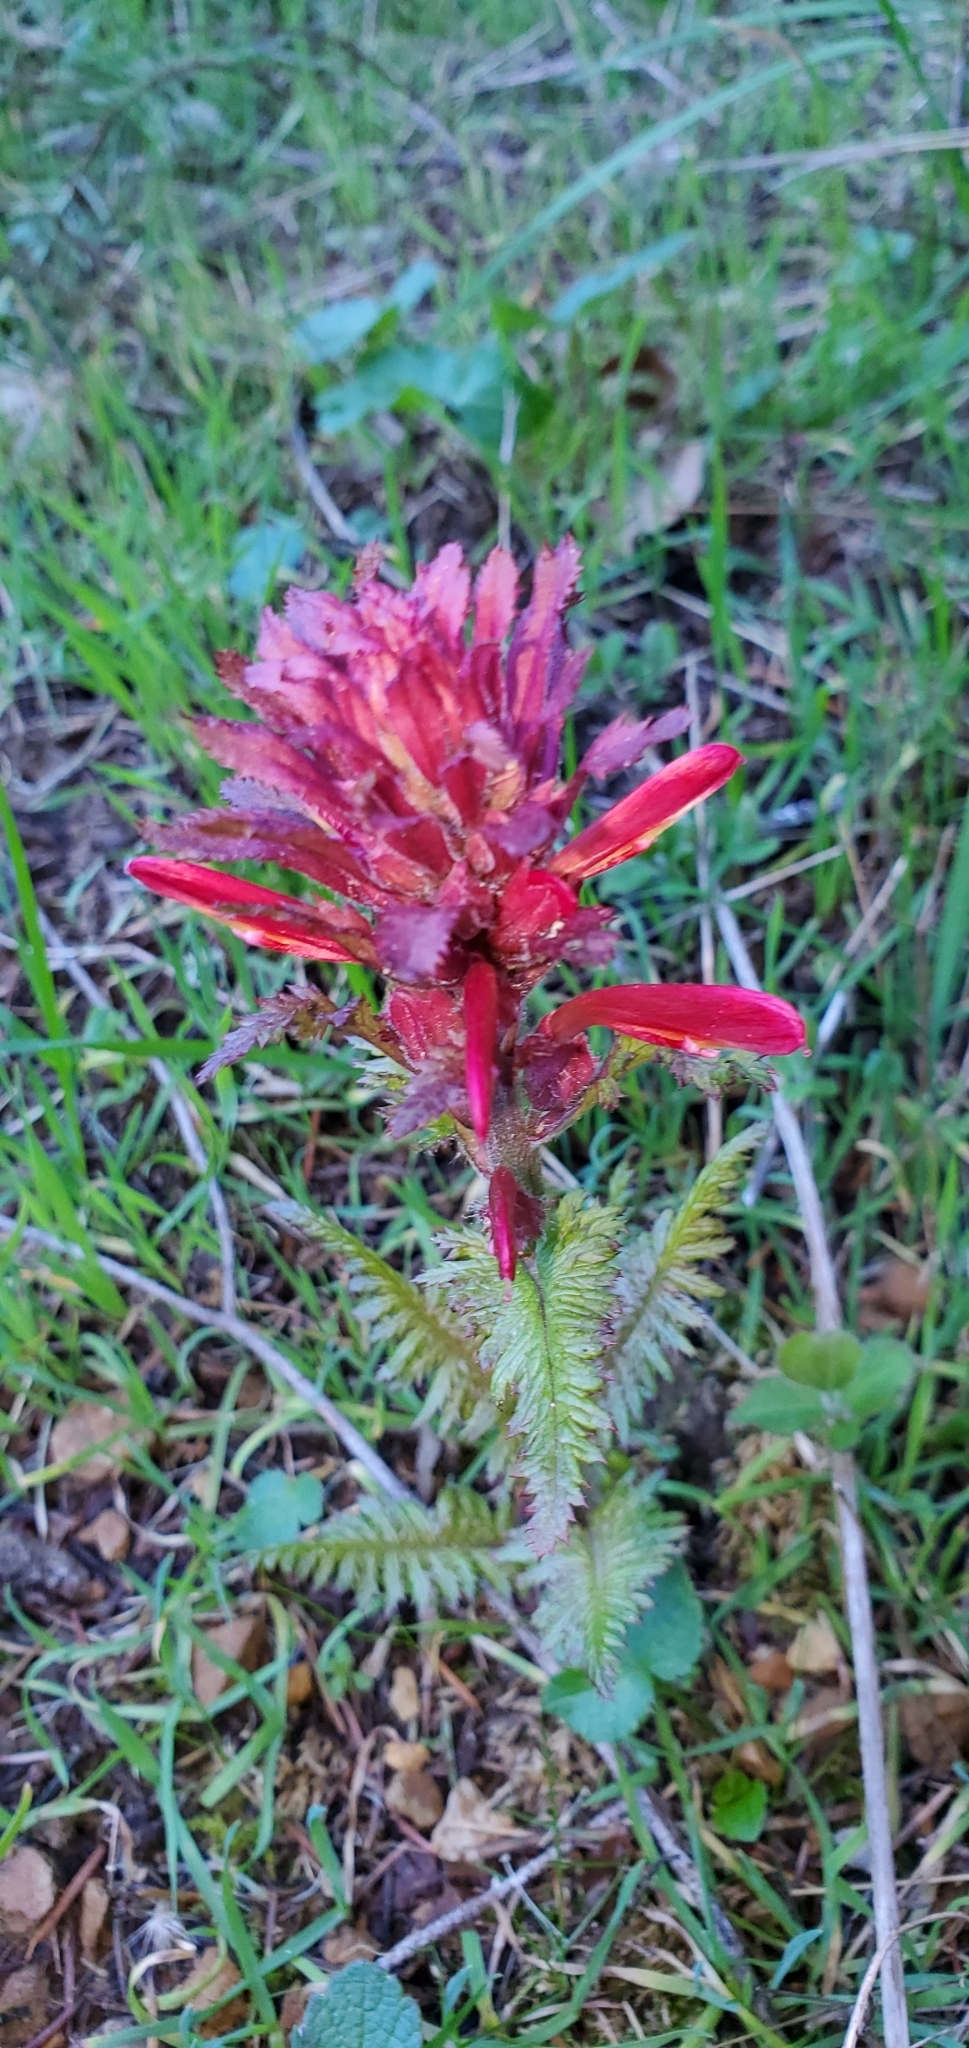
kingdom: Plantae
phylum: Tracheophyta
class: Magnoliopsida
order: Lamiales
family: Orobanchaceae
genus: Pedicularis
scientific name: Pedicularis densiflora
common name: Indian warrior
